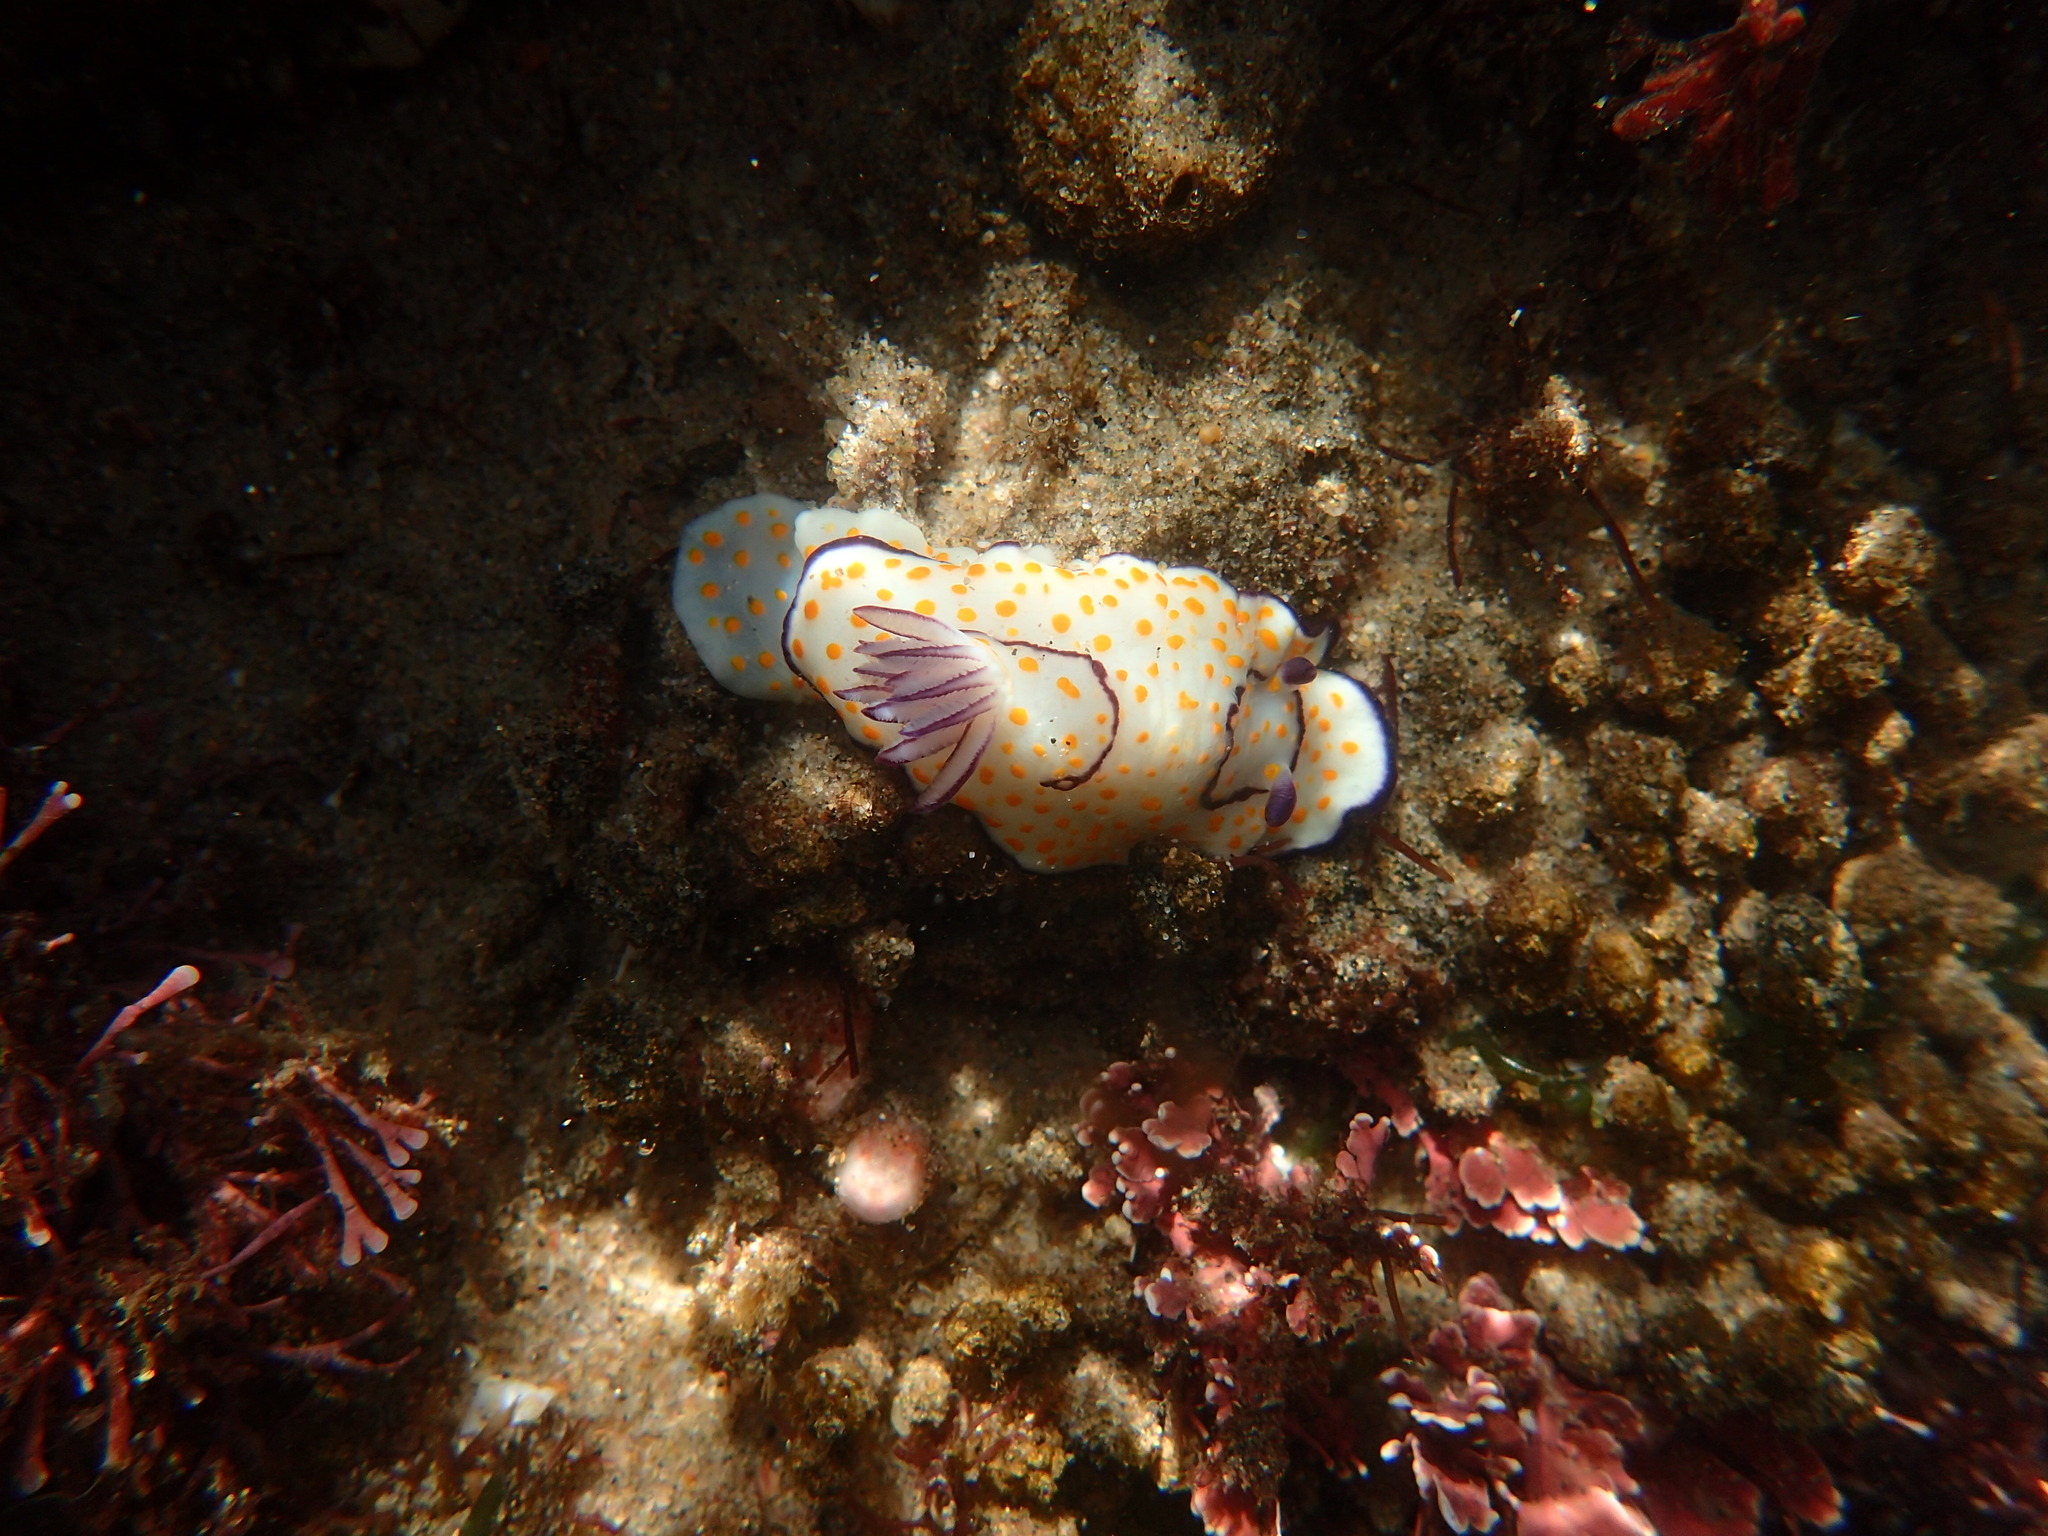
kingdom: Animalia
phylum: Mollusca
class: Gastropoda
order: Nudibranchia
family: Chromodorididae
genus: Goniobranchus
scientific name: Goniobranchus annulatus
